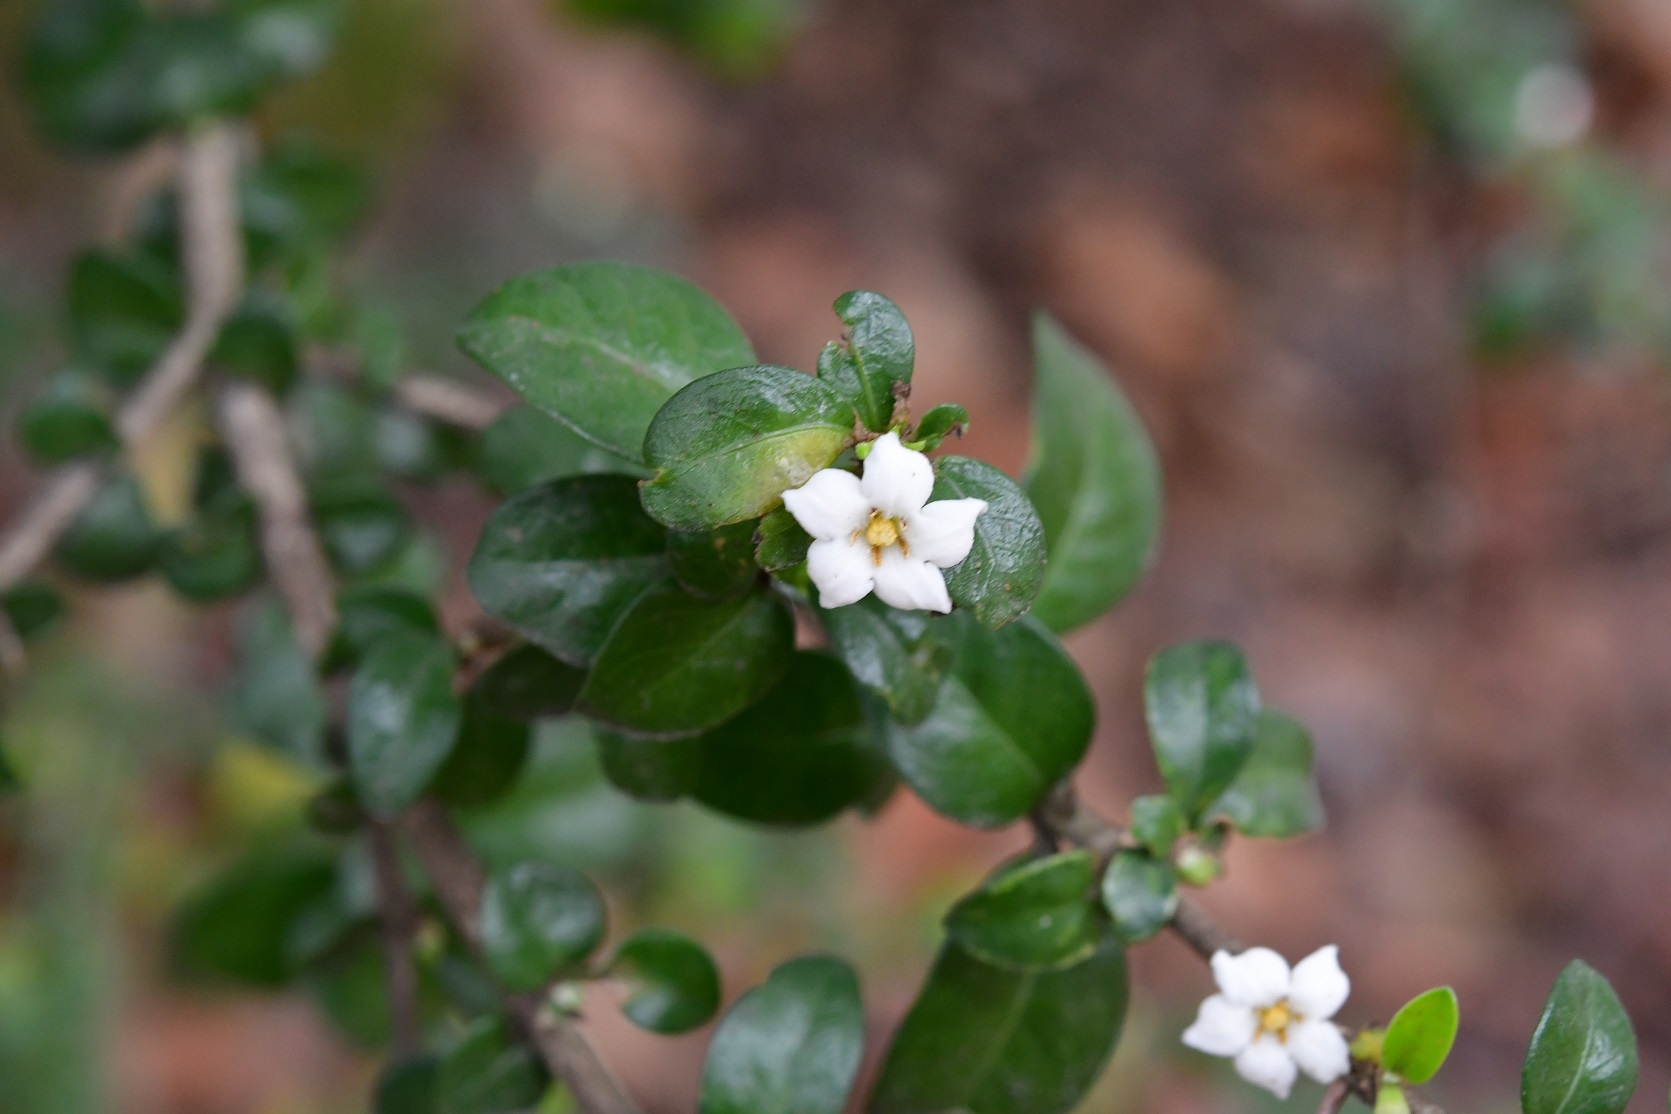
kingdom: Plantae
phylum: Tracheophyta
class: Magnoliopsida
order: Gentianales
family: Rubiaceae
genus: Randia
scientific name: Randia chiapensis
